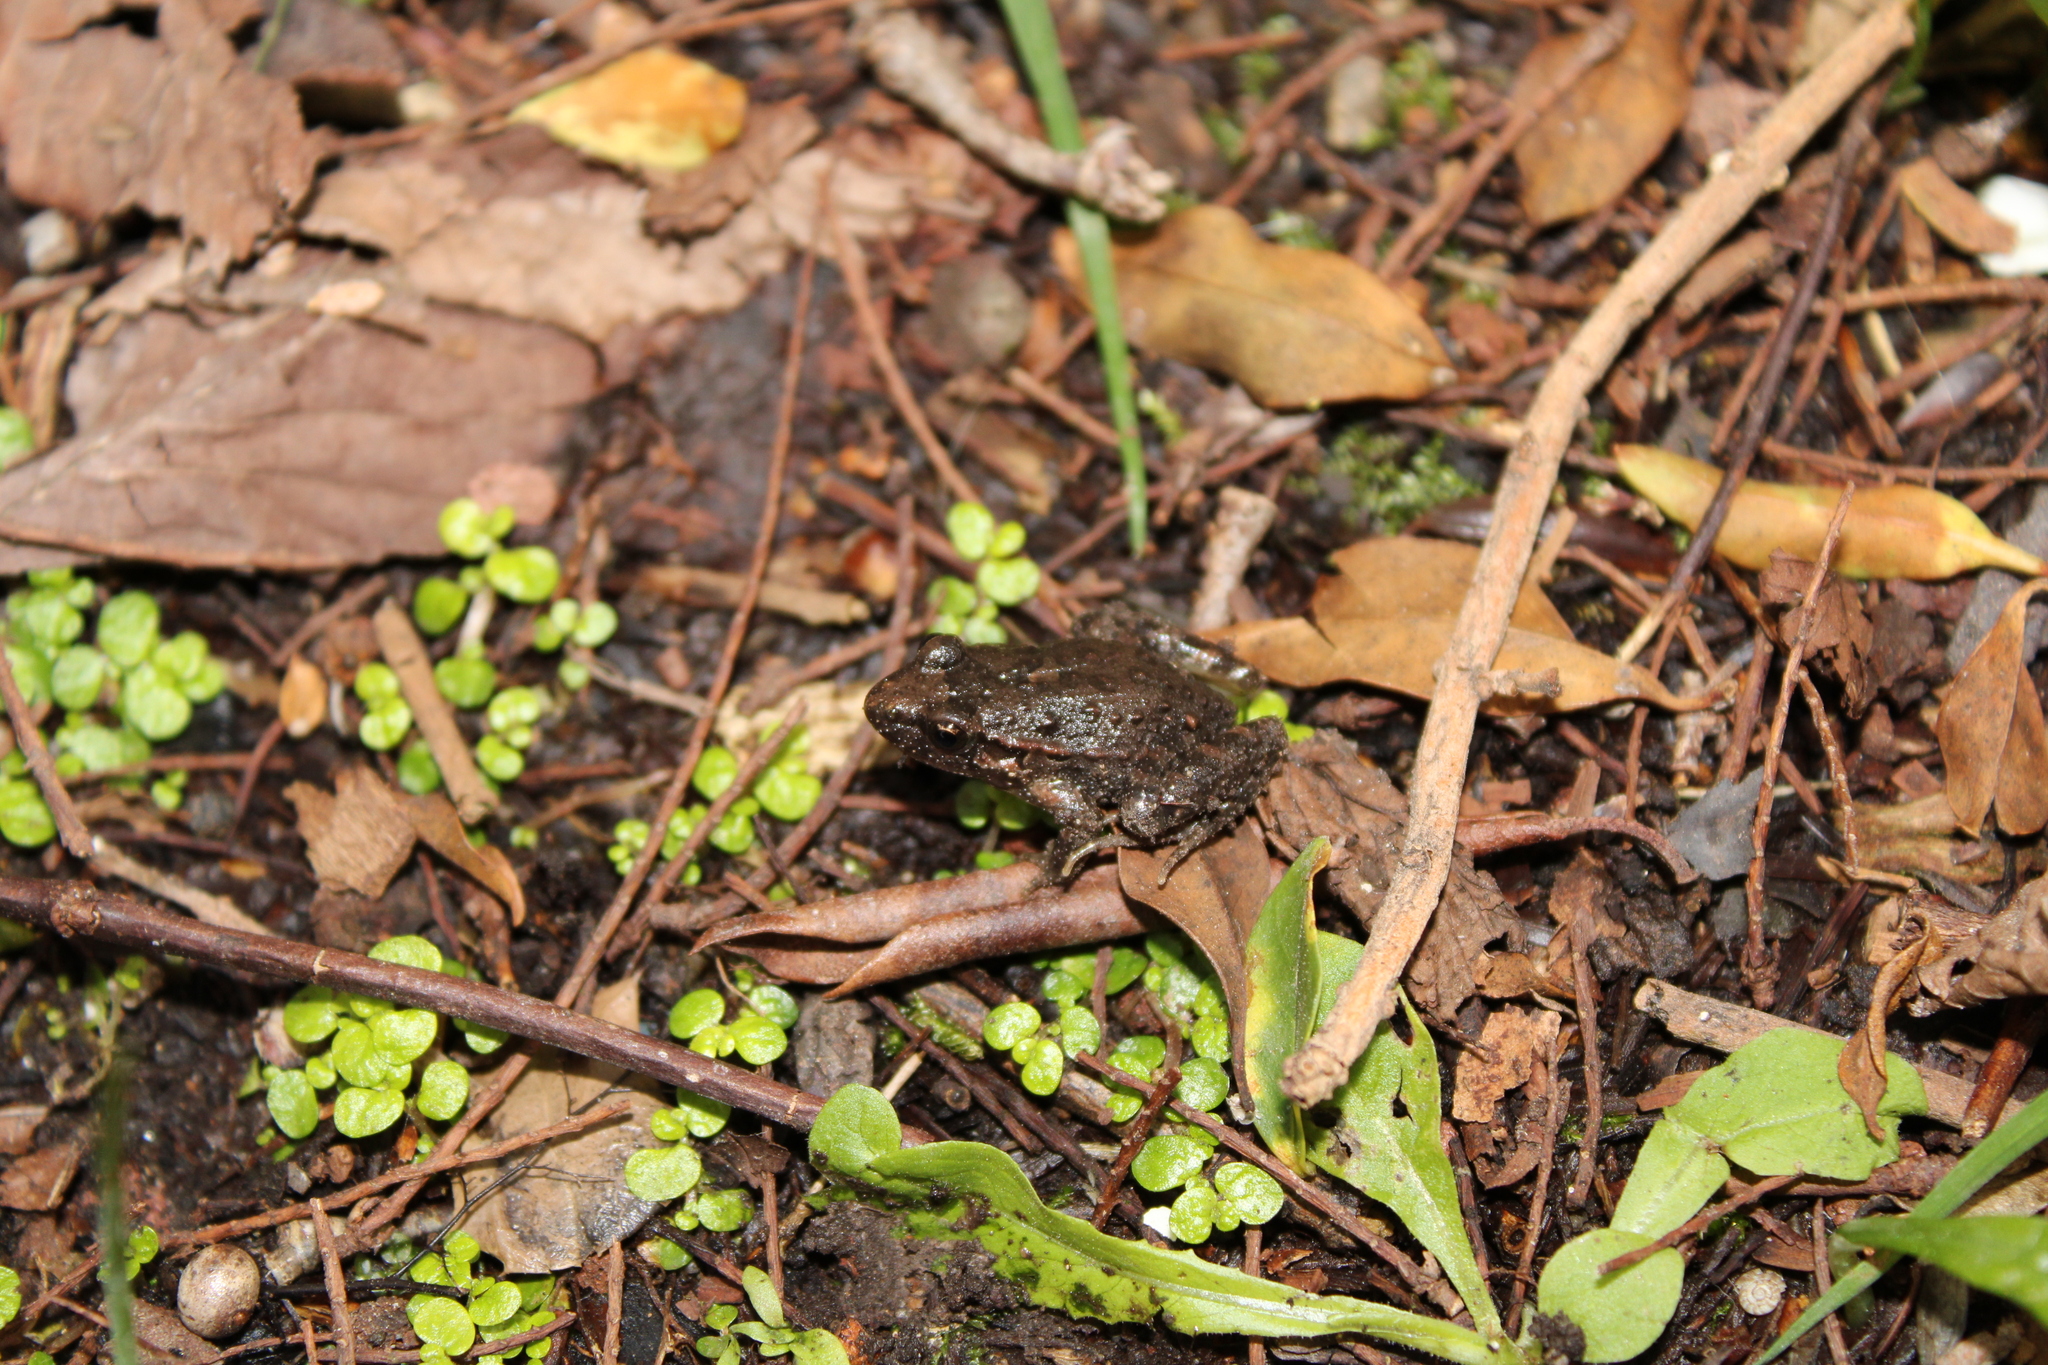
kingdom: Animalia
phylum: Chordata
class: Amphibia
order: Anura
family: Alytidae
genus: Discoglossus
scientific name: Discoglossus pictus
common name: Painted frog
